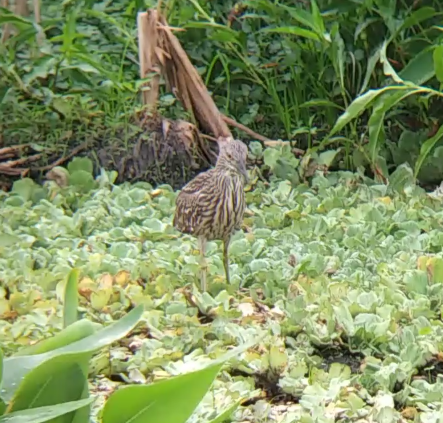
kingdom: Animalia
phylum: Chordata
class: Aves
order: Pelecaniformes
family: Ardeidae
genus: Nycticorax
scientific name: Nycticorax nycticorax
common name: Black-crowned night heron
